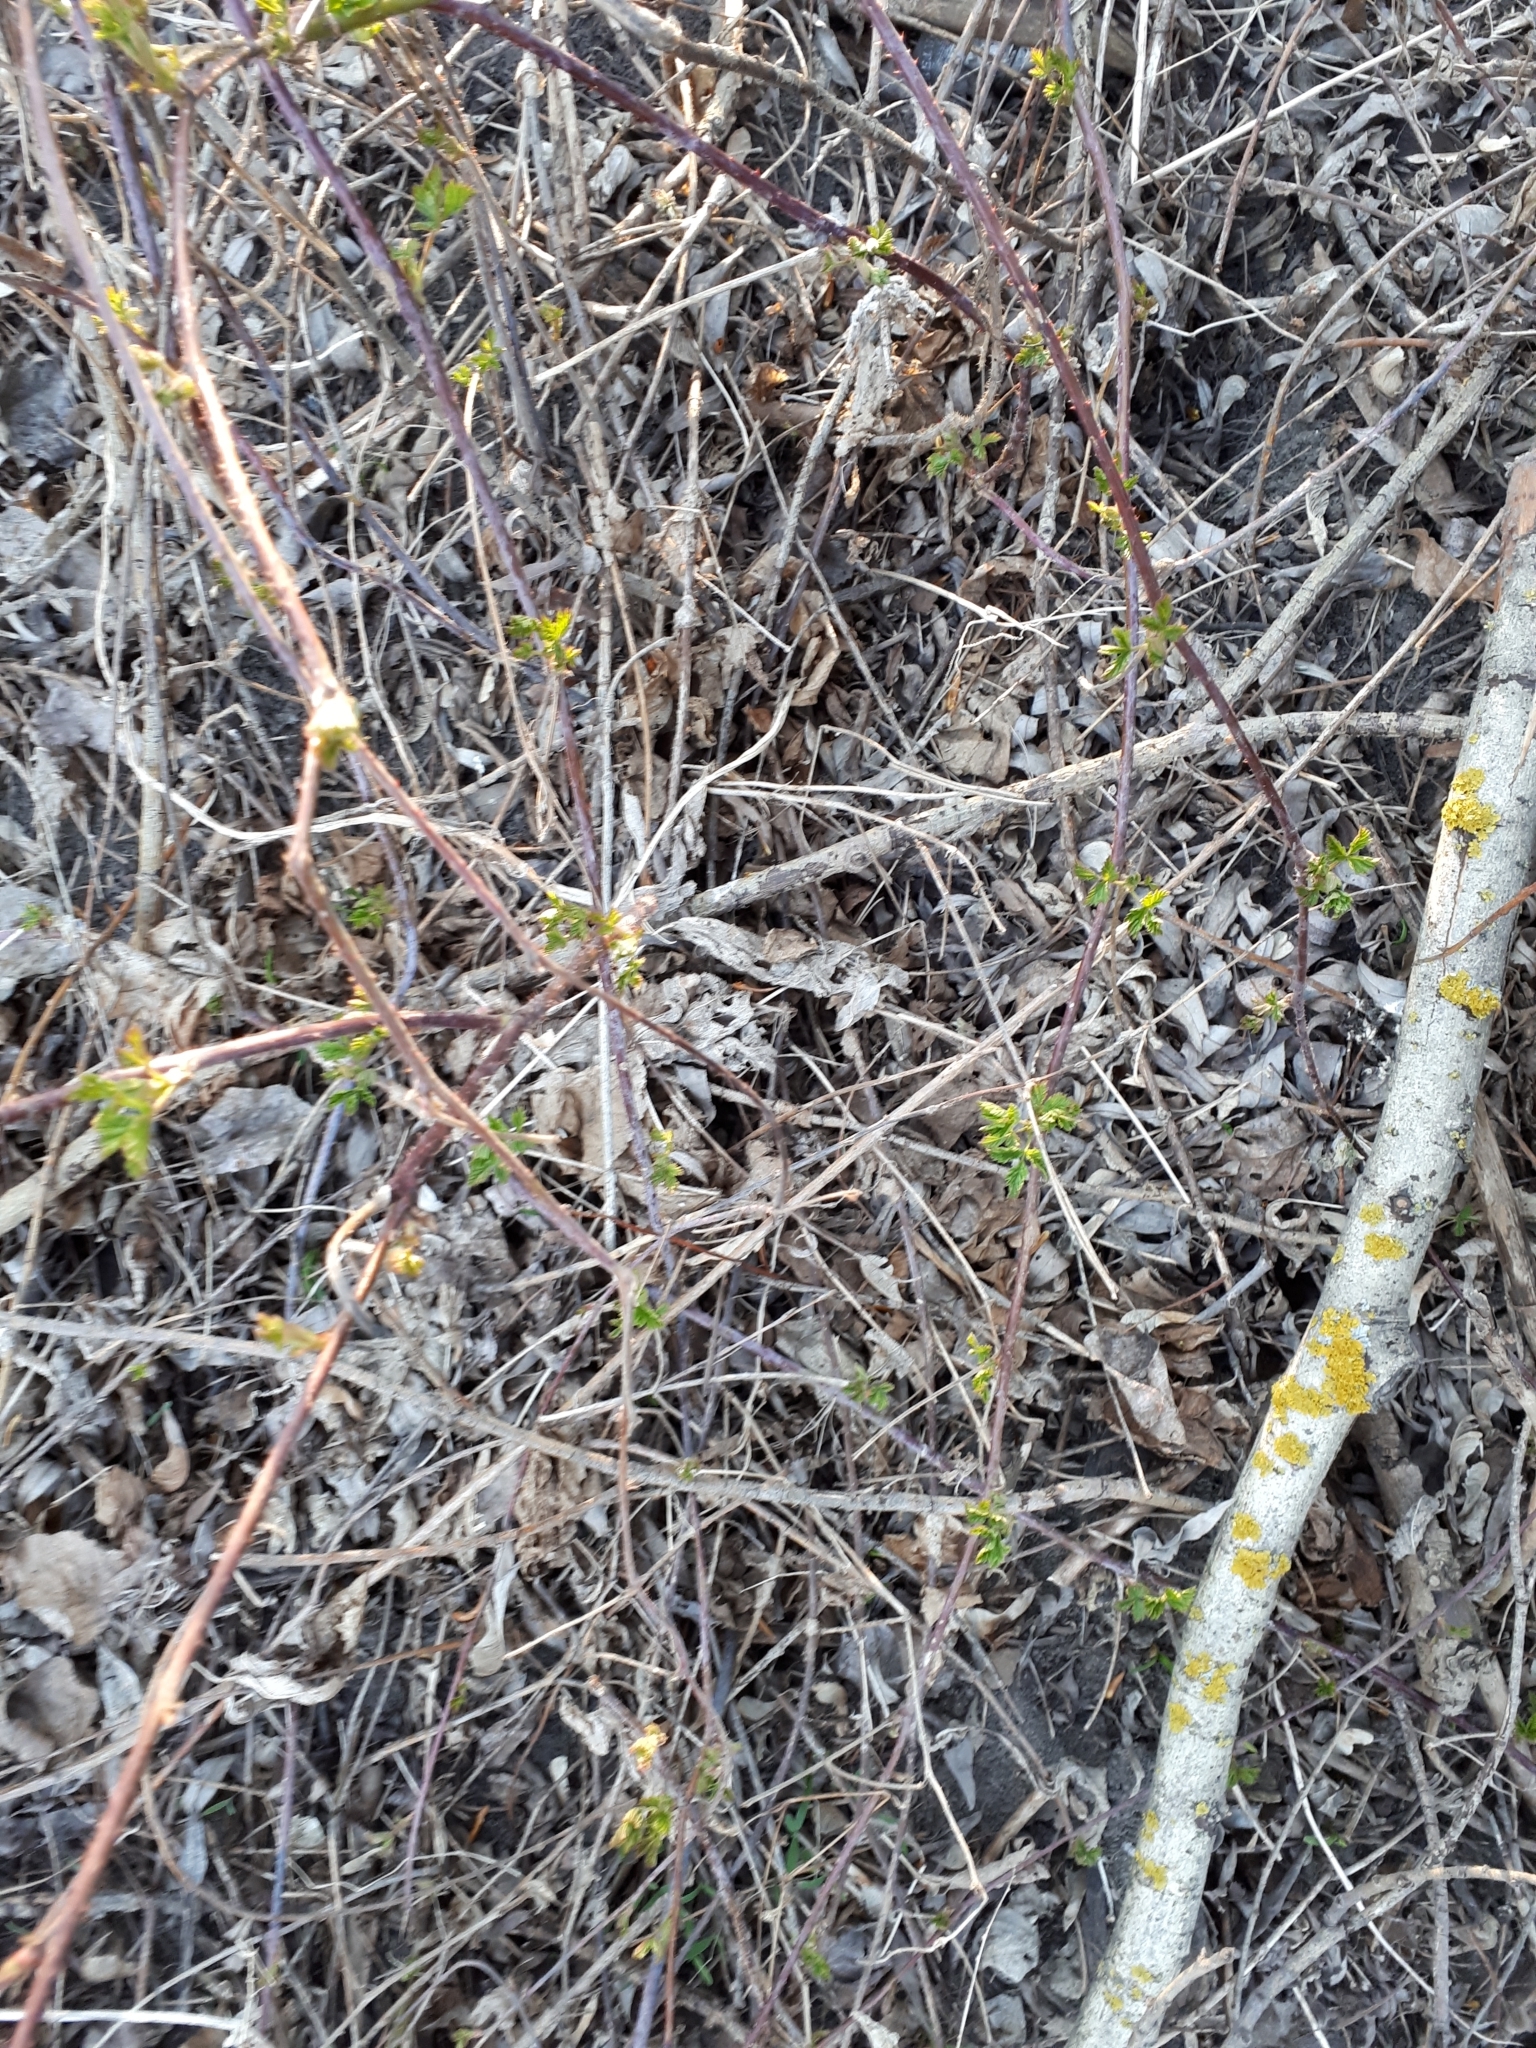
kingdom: Plantae
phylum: Tracheophyta
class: Magnoliopsida
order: Rosales
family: Rosaceae
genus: Rubus
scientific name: Rubus caesius
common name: Dewberry
